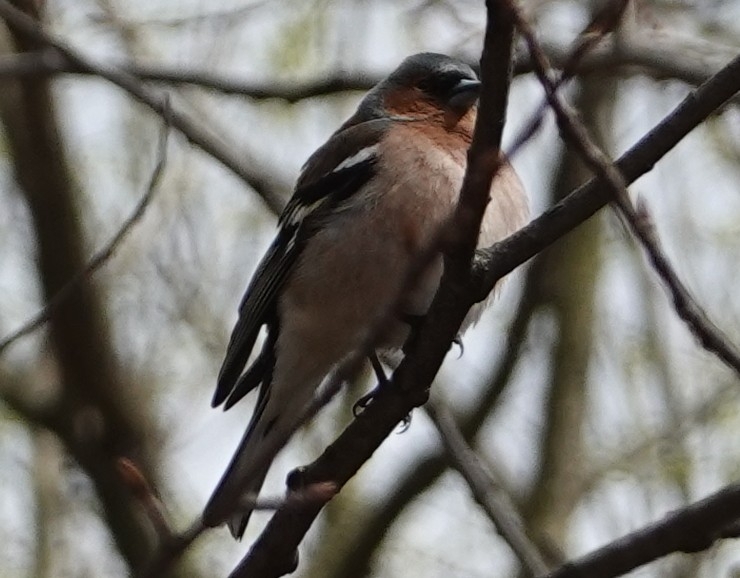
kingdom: Animalia
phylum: Chordata
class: Aves
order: Passeriformes
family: Fringillidae
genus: Fringilla
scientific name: Fringilla coelebs
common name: Common chaffinch
